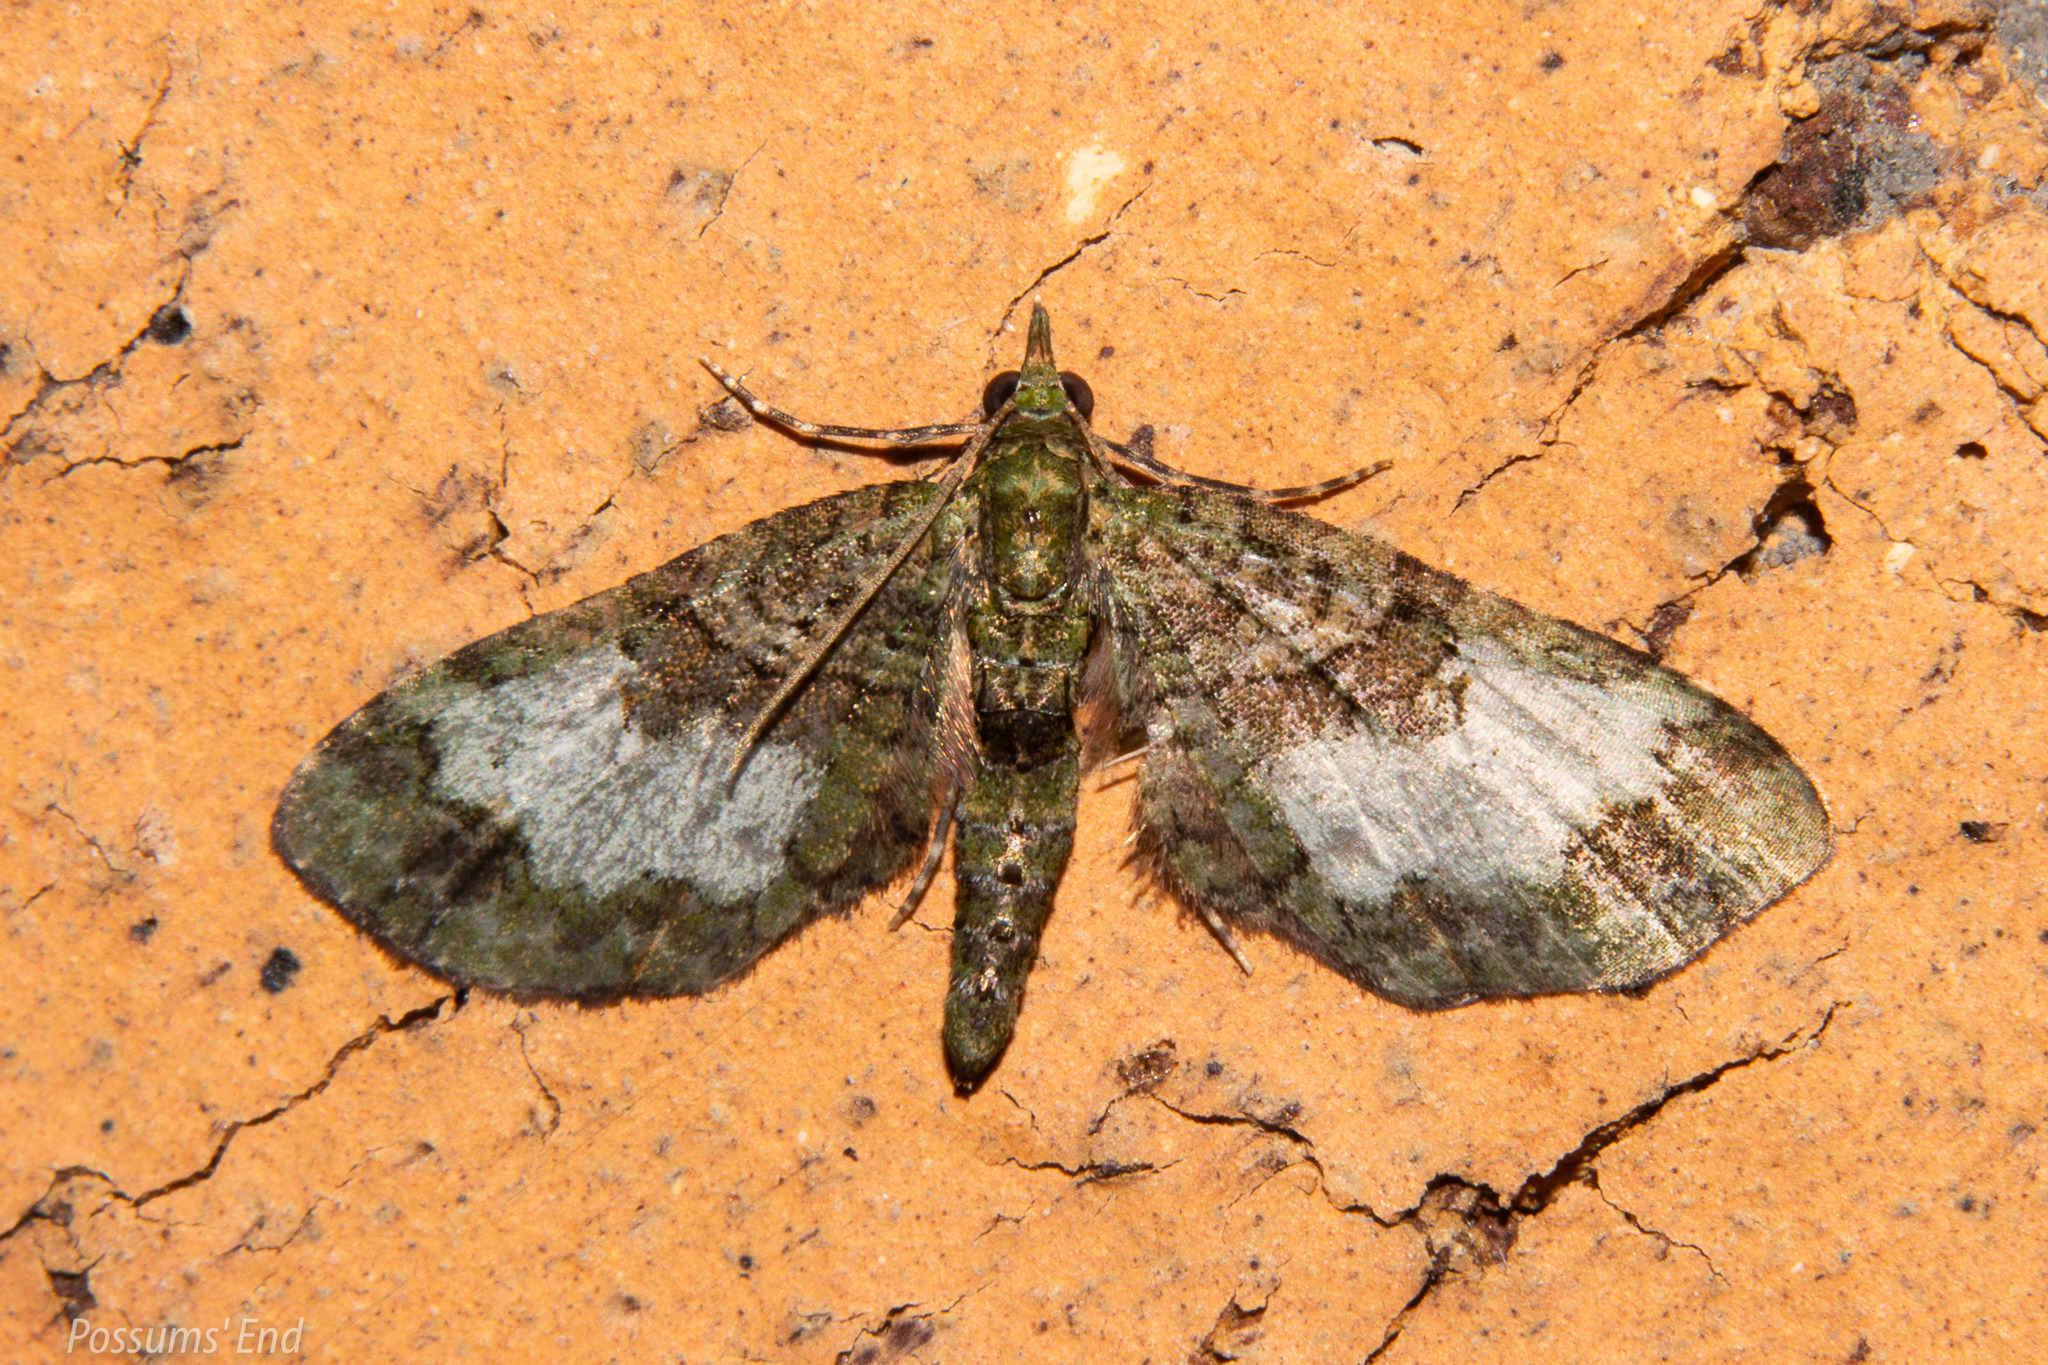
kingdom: Animalia
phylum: Arthropoda
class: Insecta
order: Lepidoptera
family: Geometridae
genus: Idaea
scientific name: Idaea mutanda
